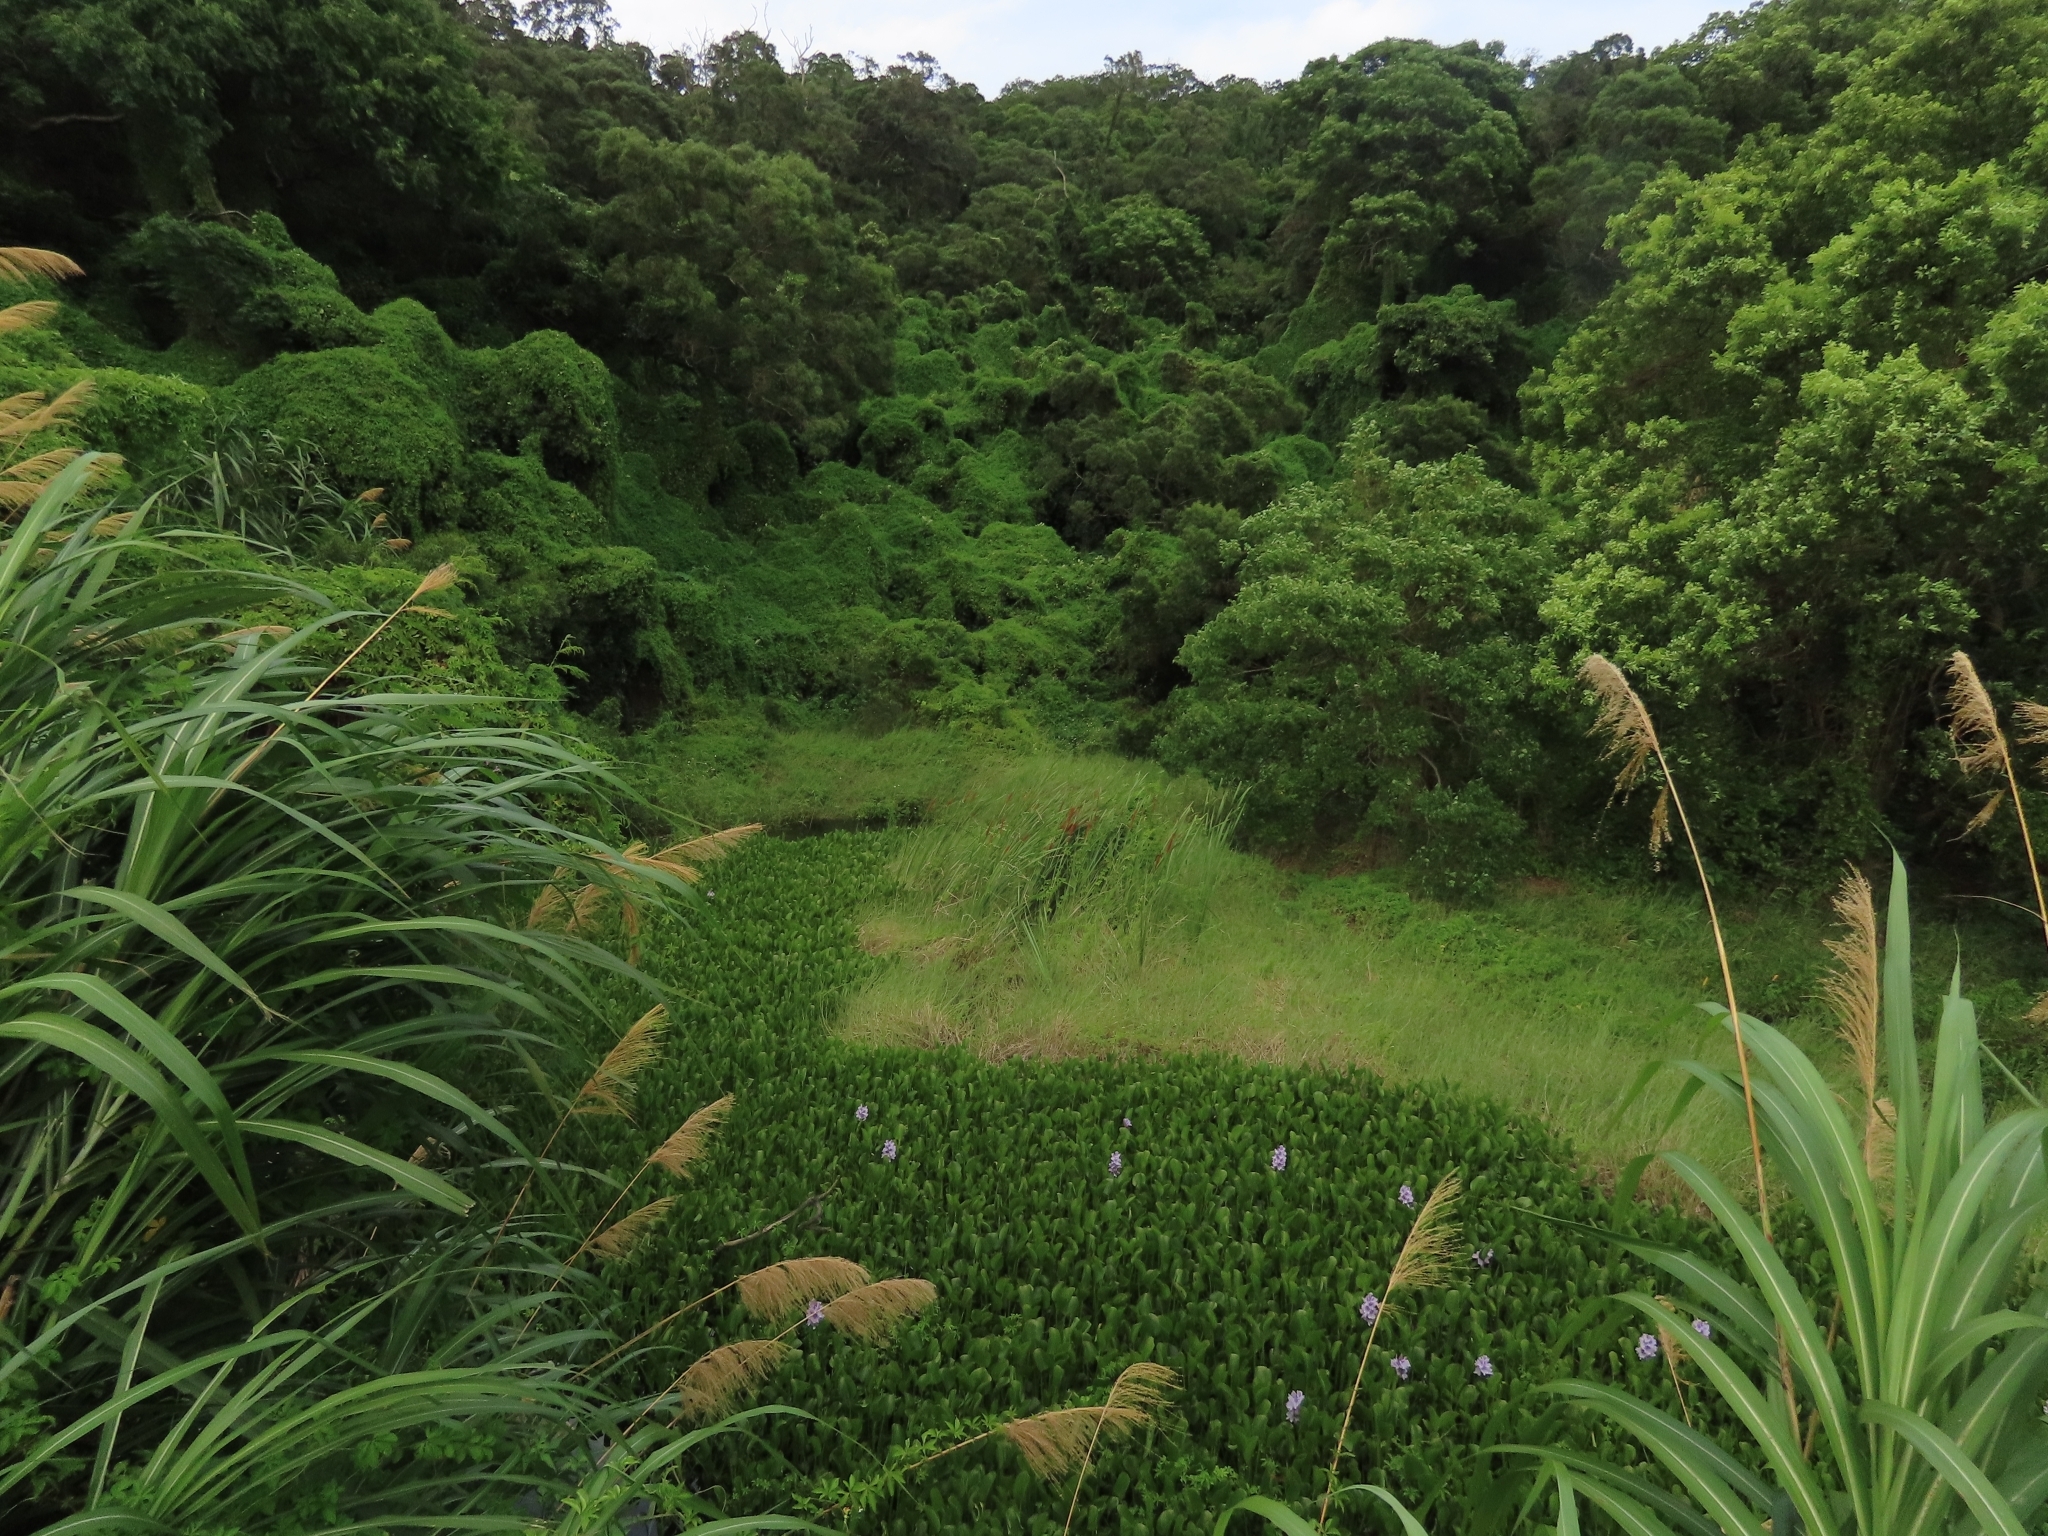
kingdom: Plantae
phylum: Tracheophyta
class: Liliopsida
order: Poales
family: Typhaceae
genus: Typha
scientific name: Typha angustifolia
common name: Lesser bulrush
